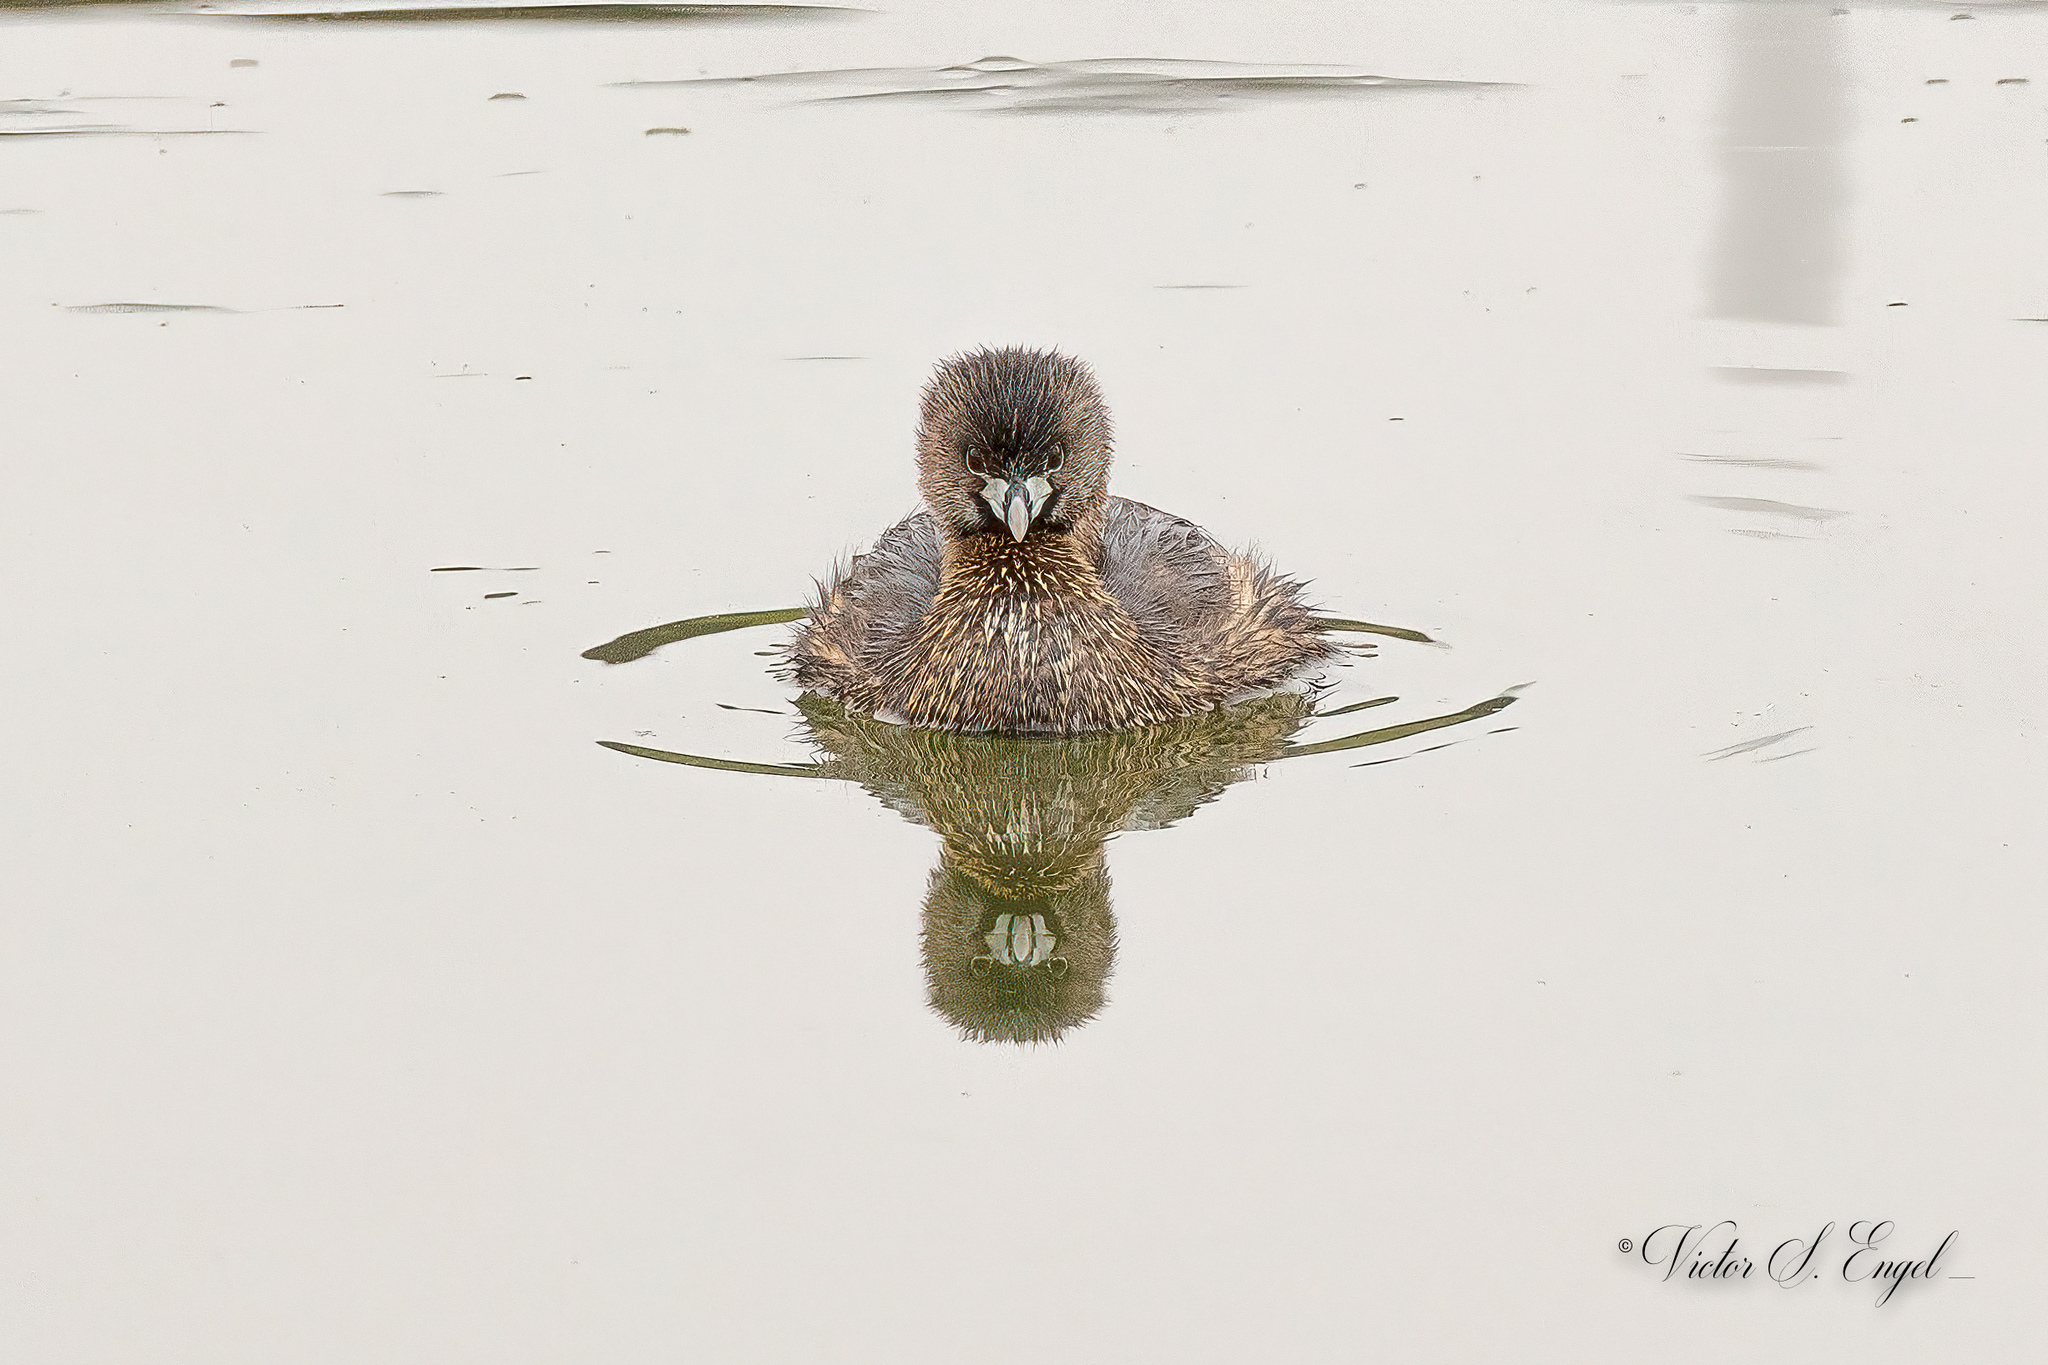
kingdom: Animalia
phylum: Chordata
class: Aves
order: Podicipediformes
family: Podicipedidae
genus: Podilymbus
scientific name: Podilymbus podiceps
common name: Pied-billed grebe
